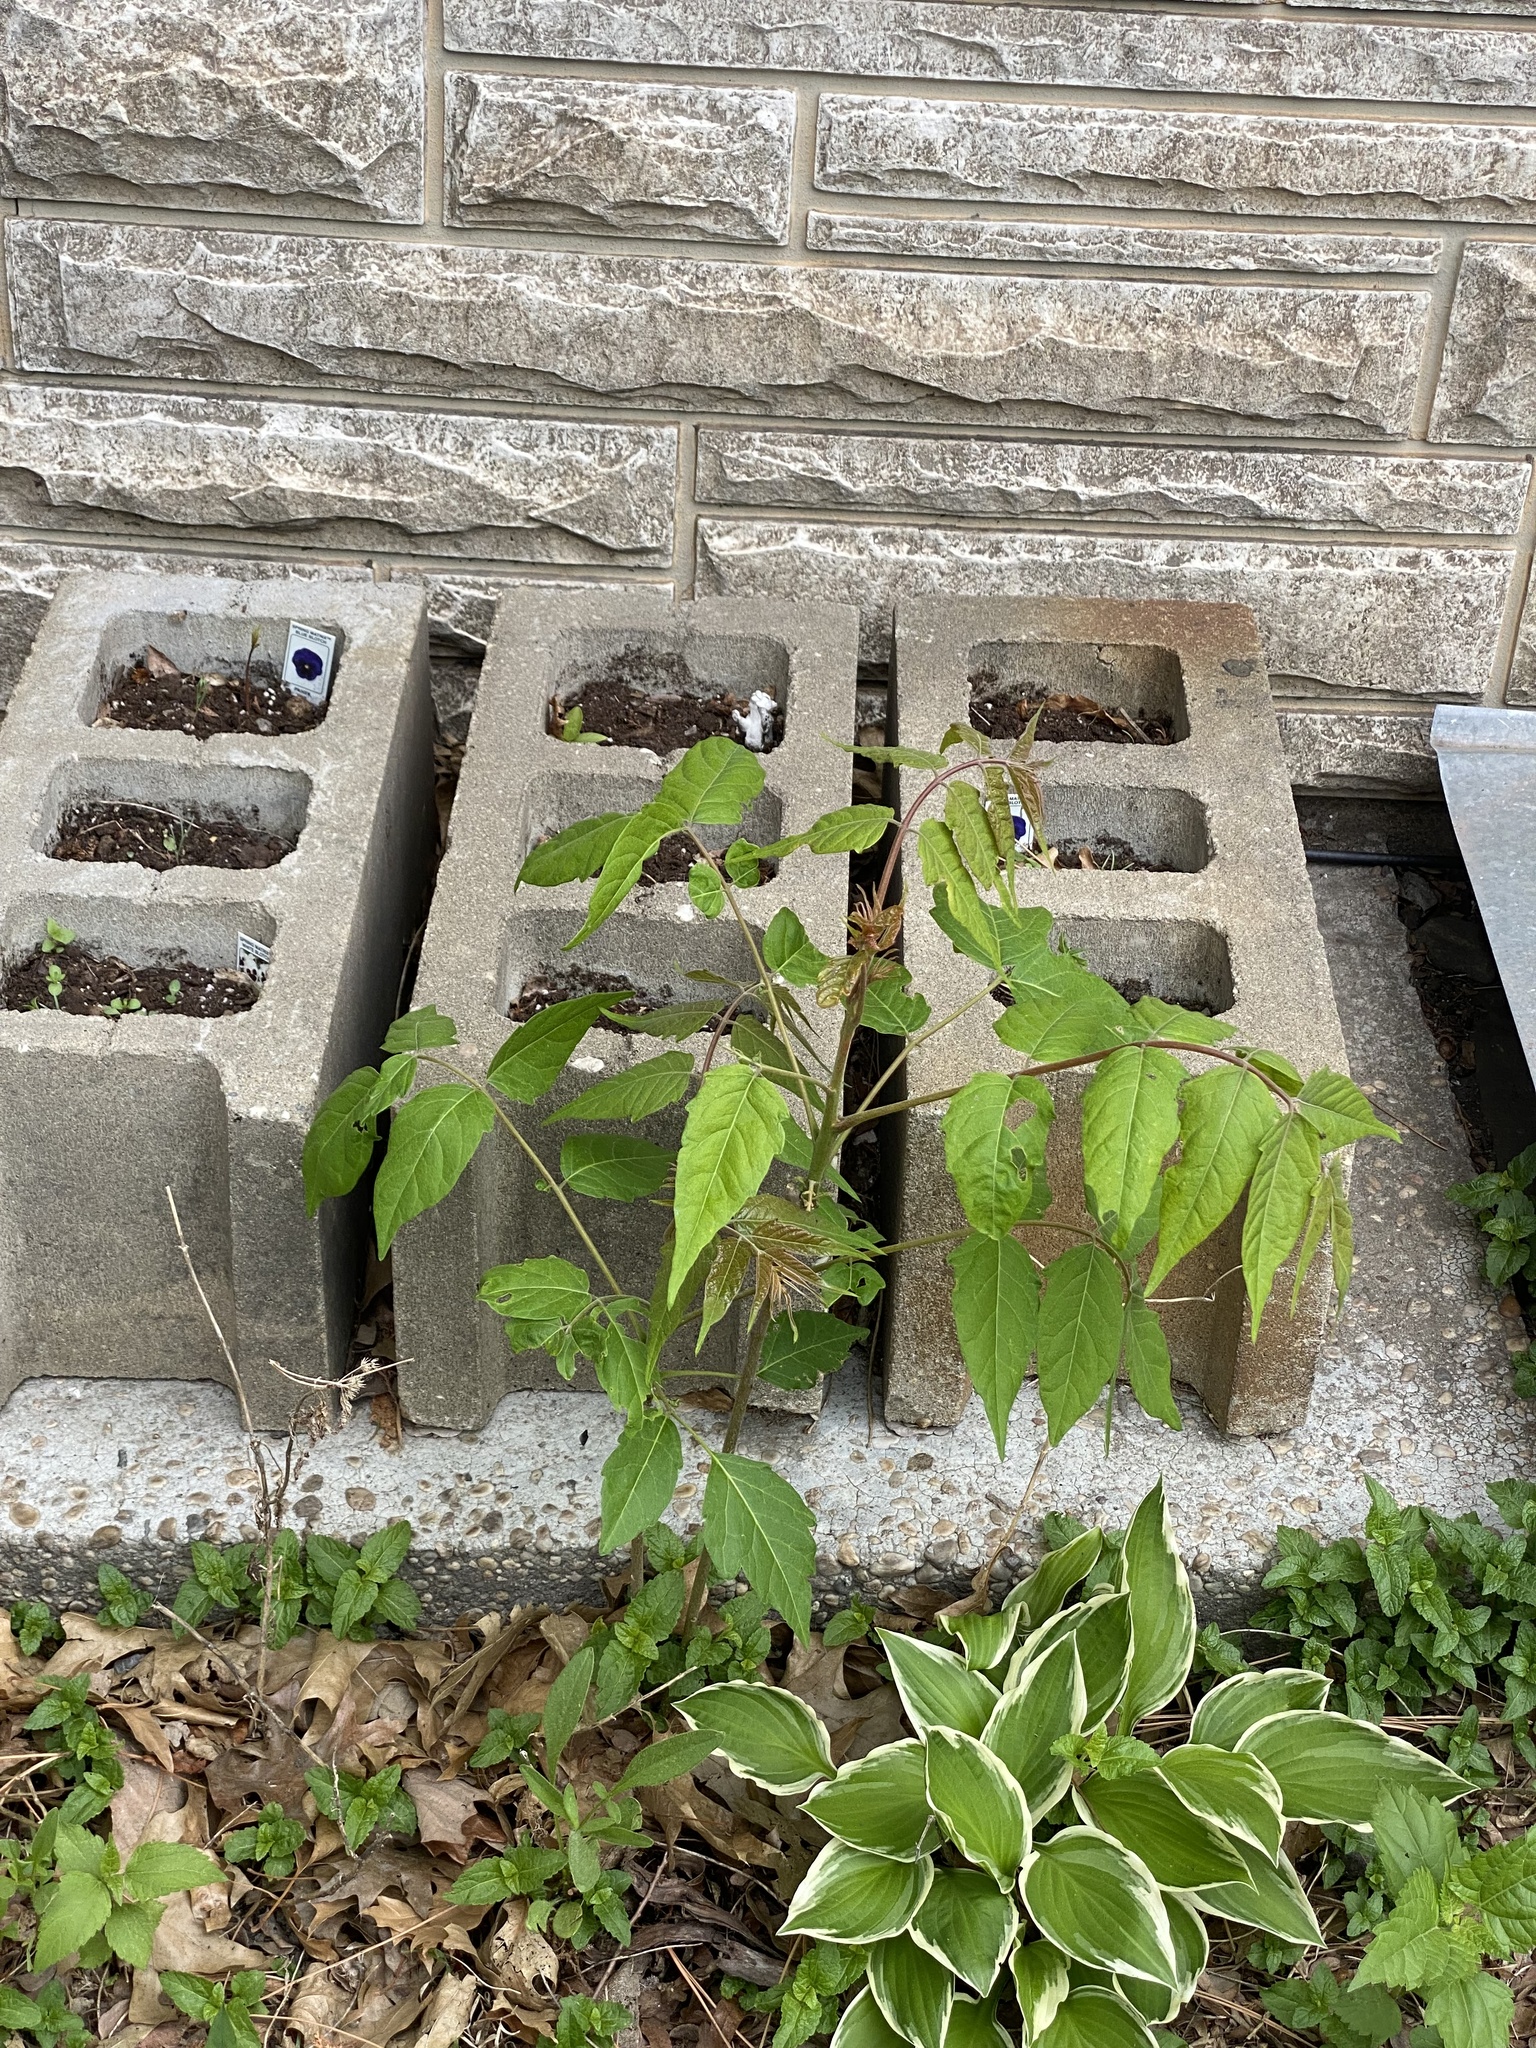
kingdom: Plantae
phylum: Tracheophyta
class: Magnoliopsida
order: Sapindales
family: Simaroubaceae
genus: Ailanthus
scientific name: Ailanthus altissima
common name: Tree-of-heaven
